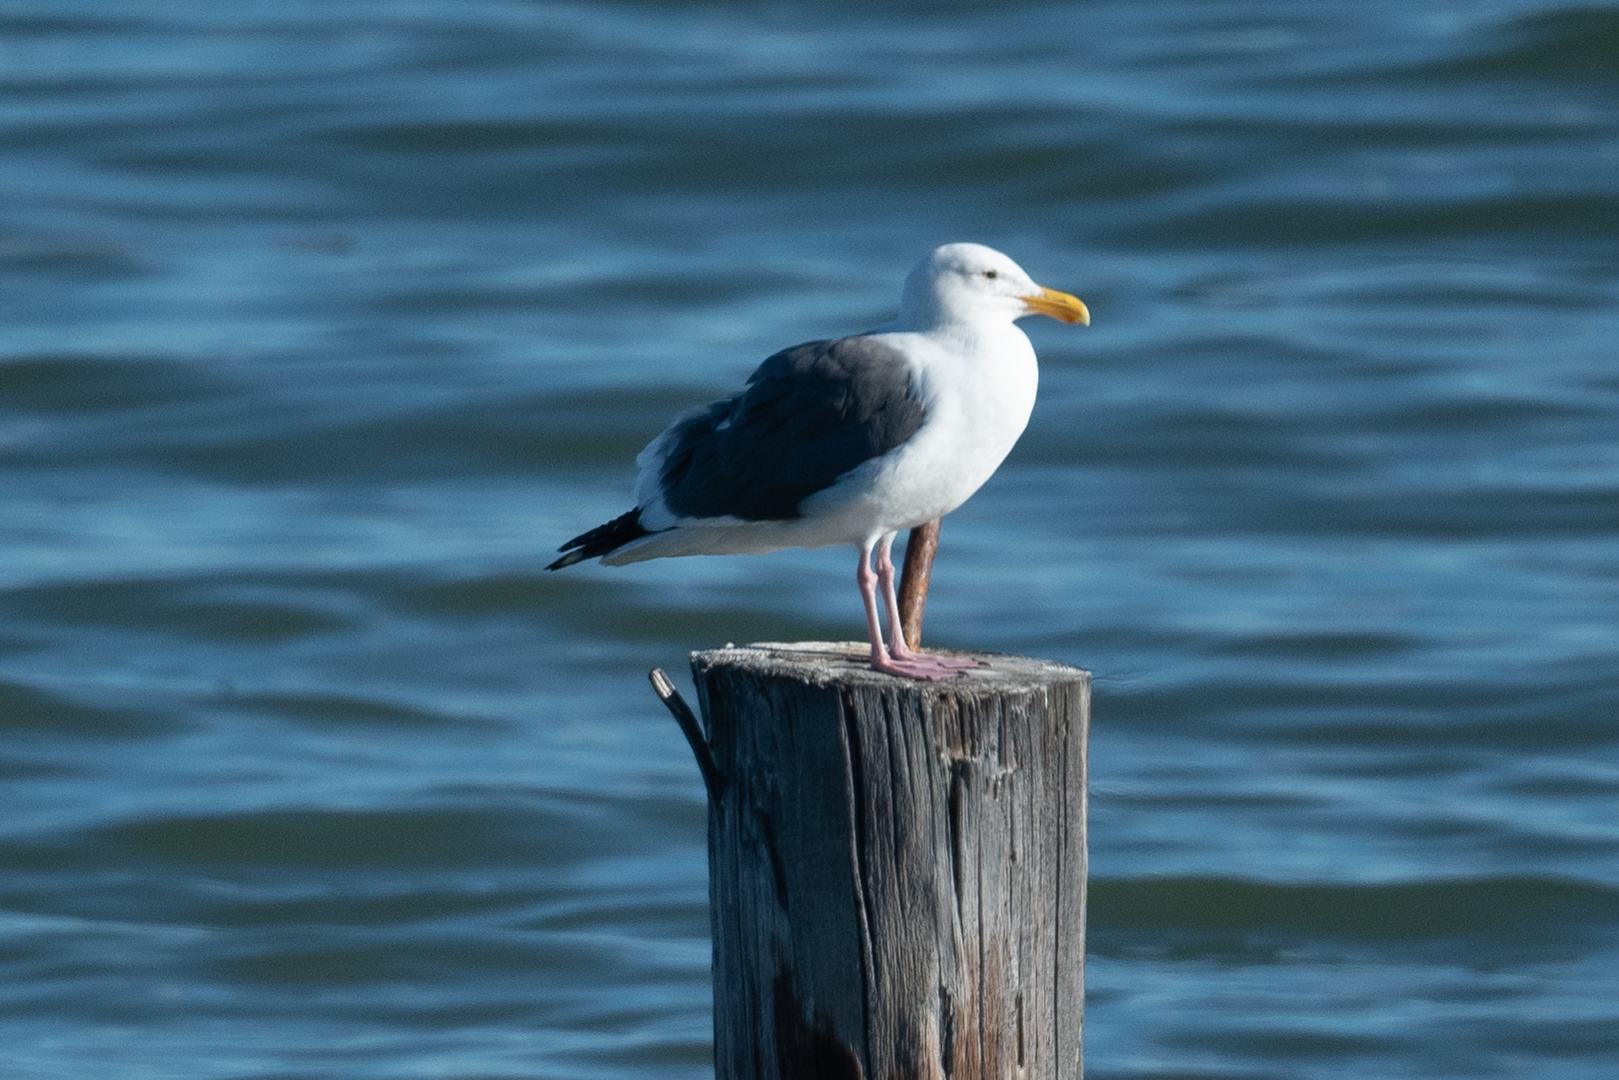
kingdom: Animalia
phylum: Chordata
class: Aves
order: Charadriiformes
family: Laridae
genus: Larus
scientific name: Larus occidentalis
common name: Western gull
